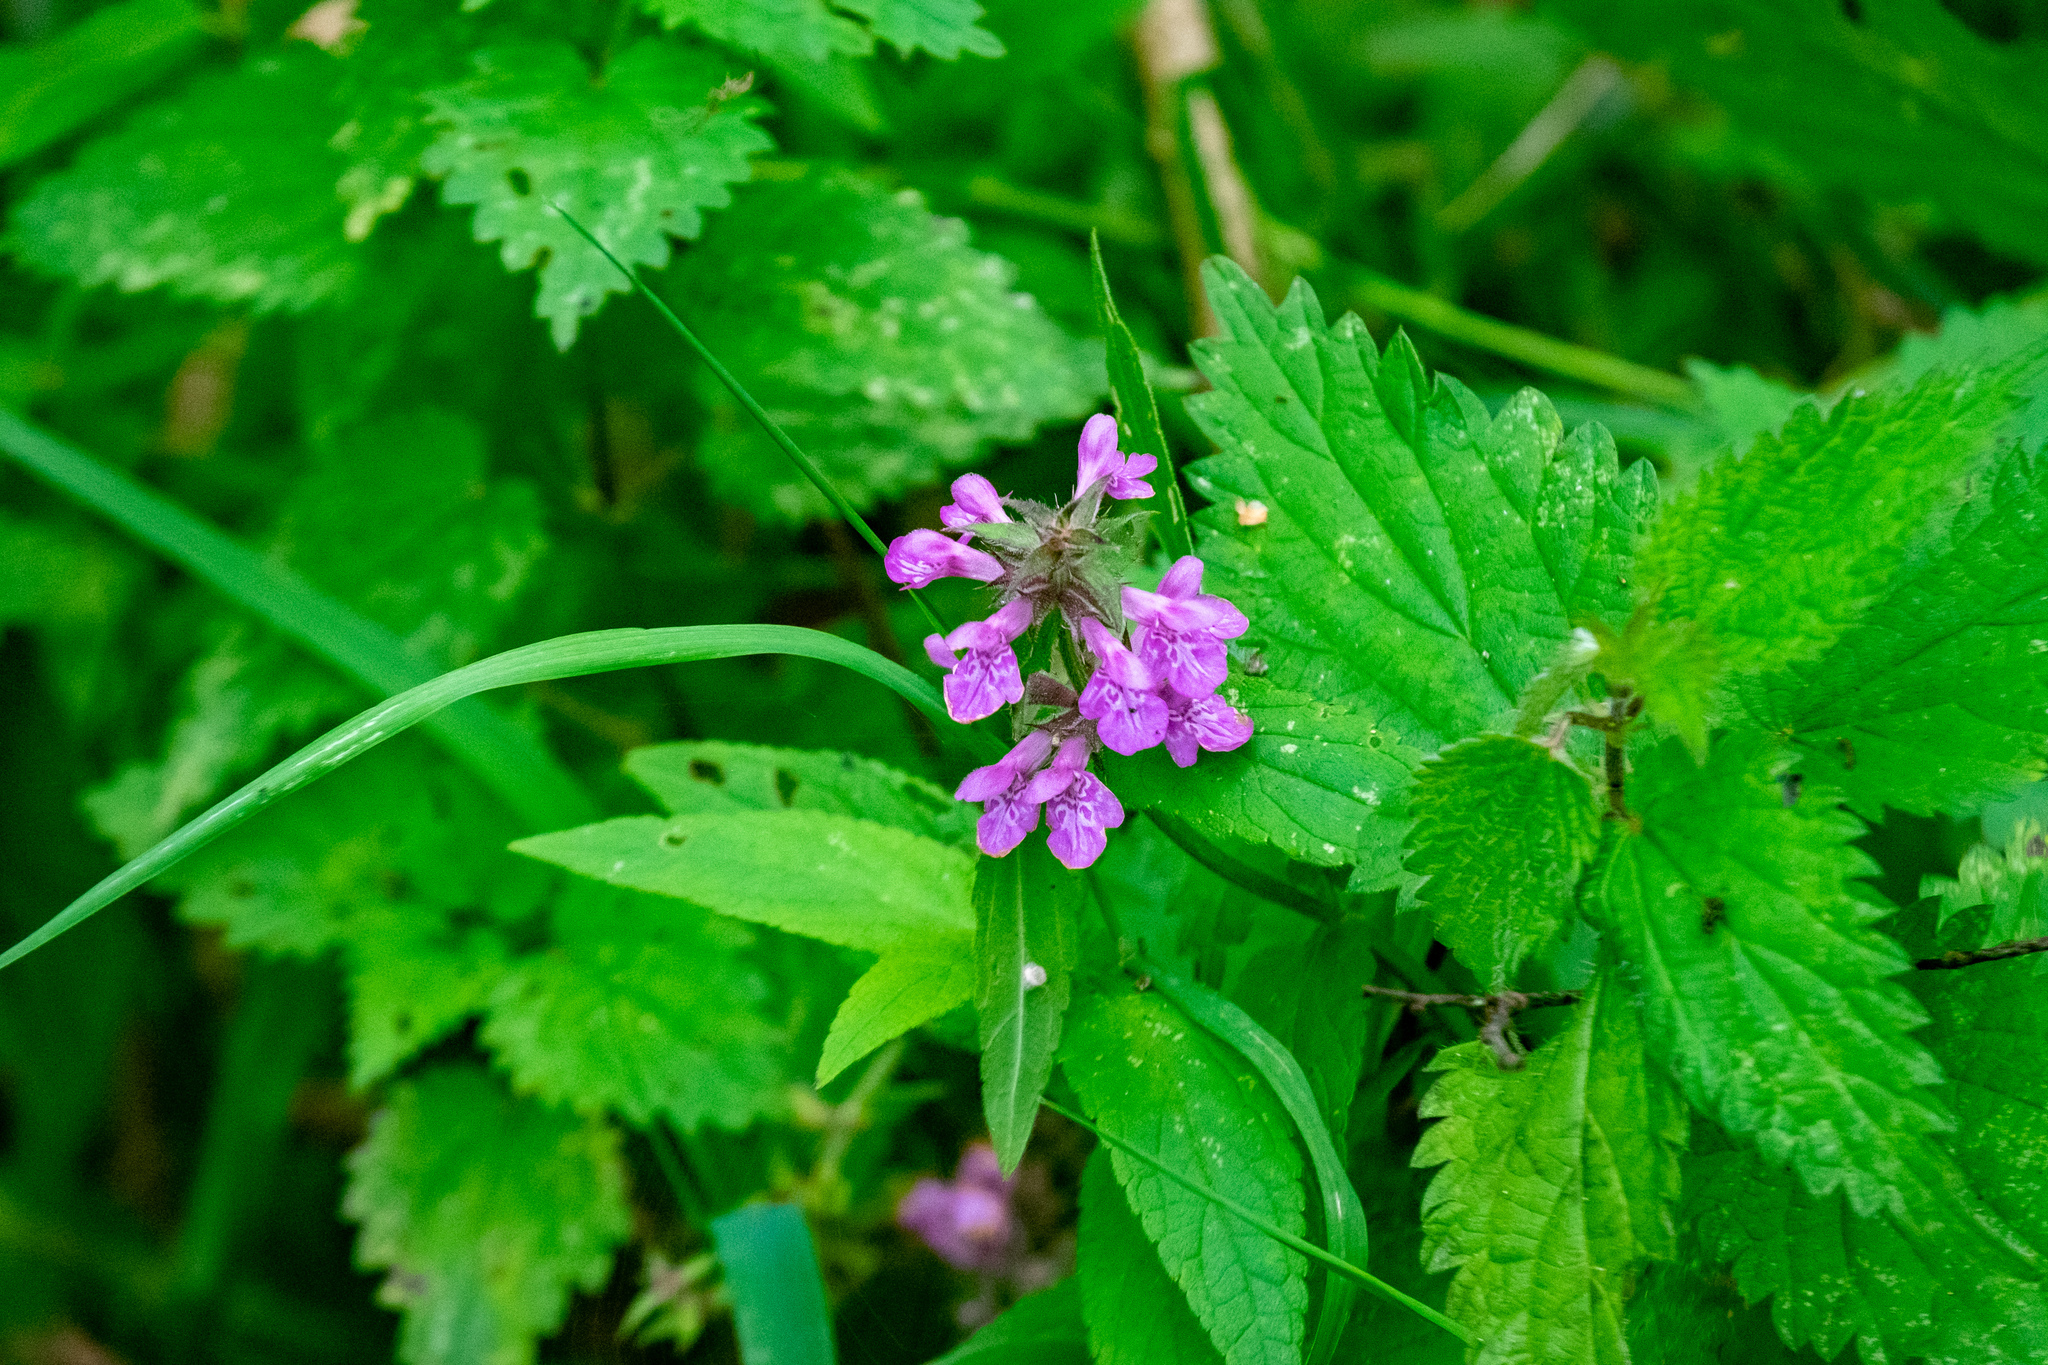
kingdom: Plantae
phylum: Tracheophyta
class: Magnoliopsida
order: Lamiales
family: Lamiaceae
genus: Stachys
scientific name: Stachys palustris
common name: Marsh woundwort
